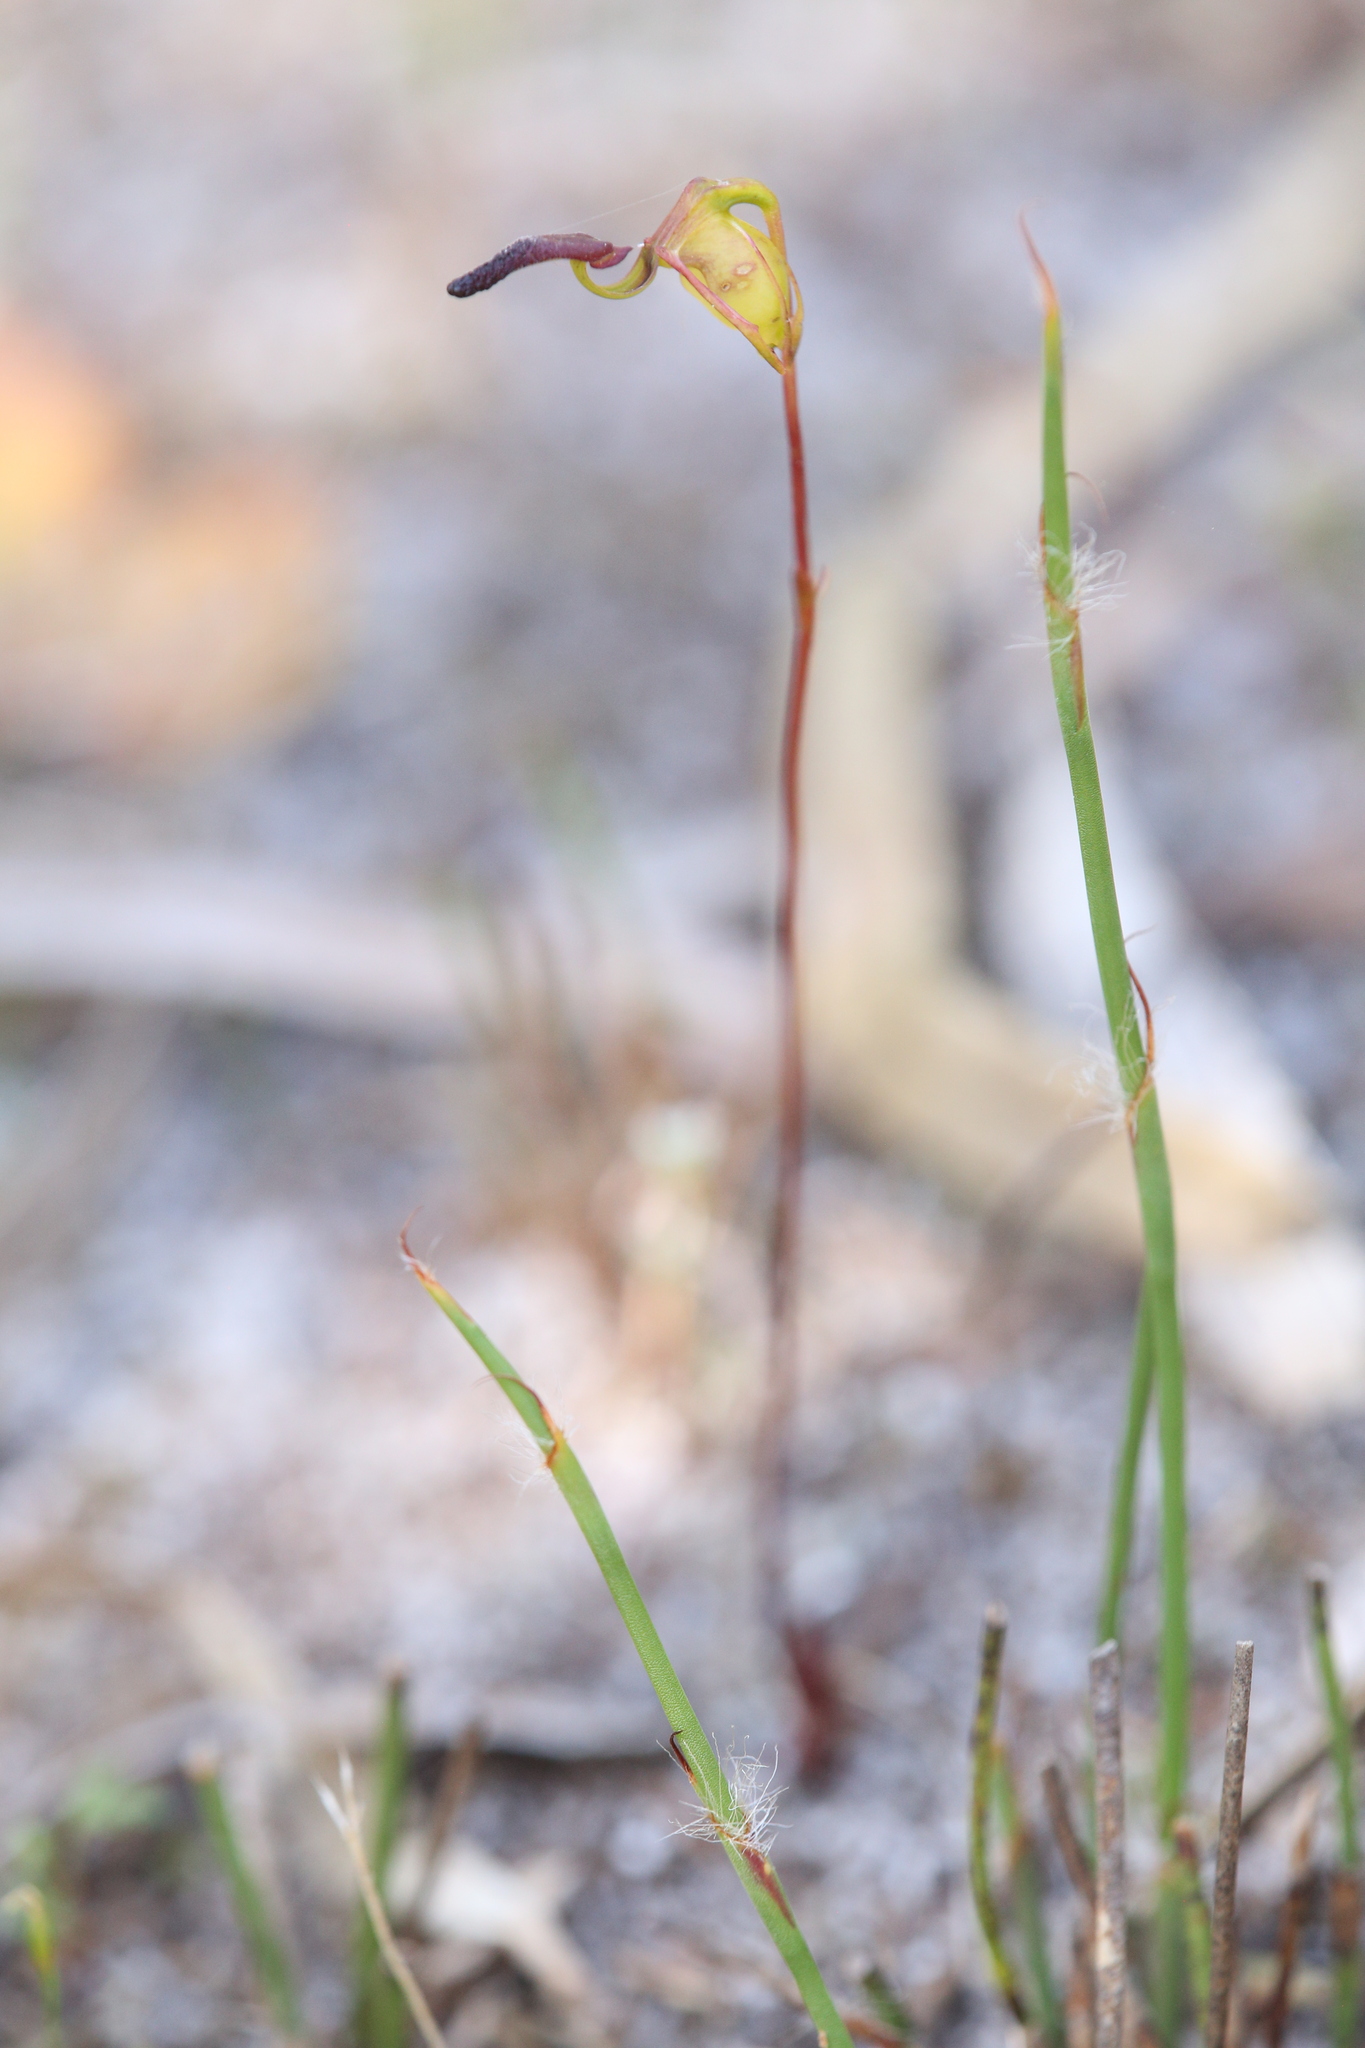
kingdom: Plantae
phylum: Tracheophyta
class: Liliopsida
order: Asparagales
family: Orchidaceae
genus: Caleana
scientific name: Caleana nigrita
